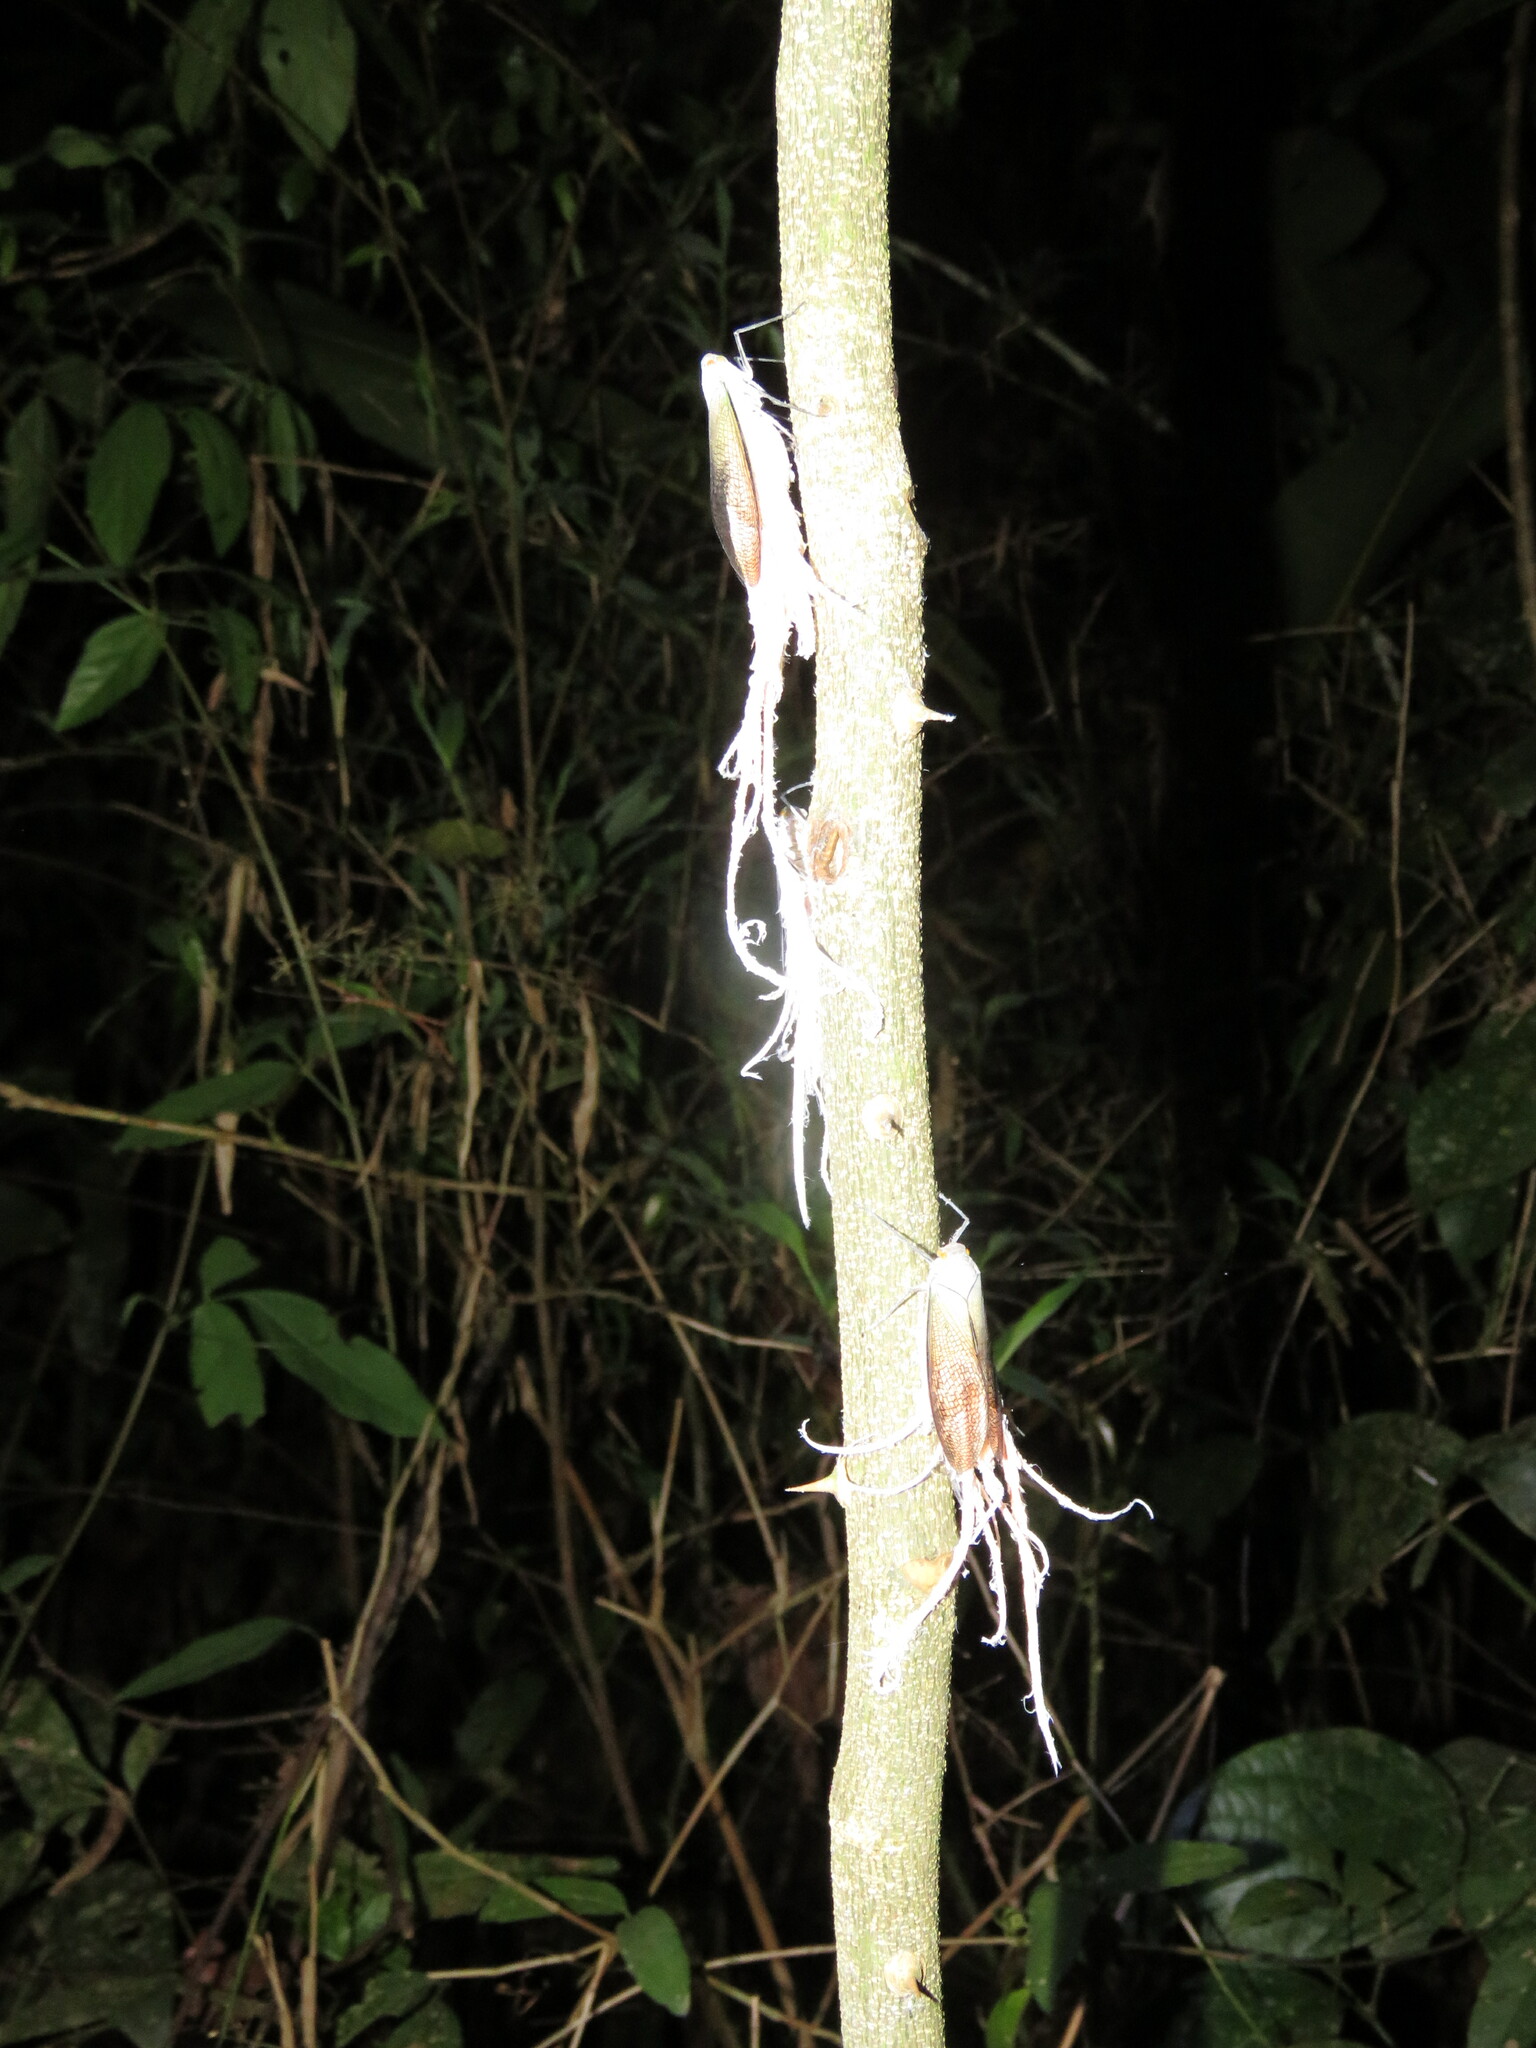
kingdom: Animalia
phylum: Arthropoda
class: Insecta
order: Hemiptera
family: Fulgoridae
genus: Pterodictya
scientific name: Pterodictya reticularis
